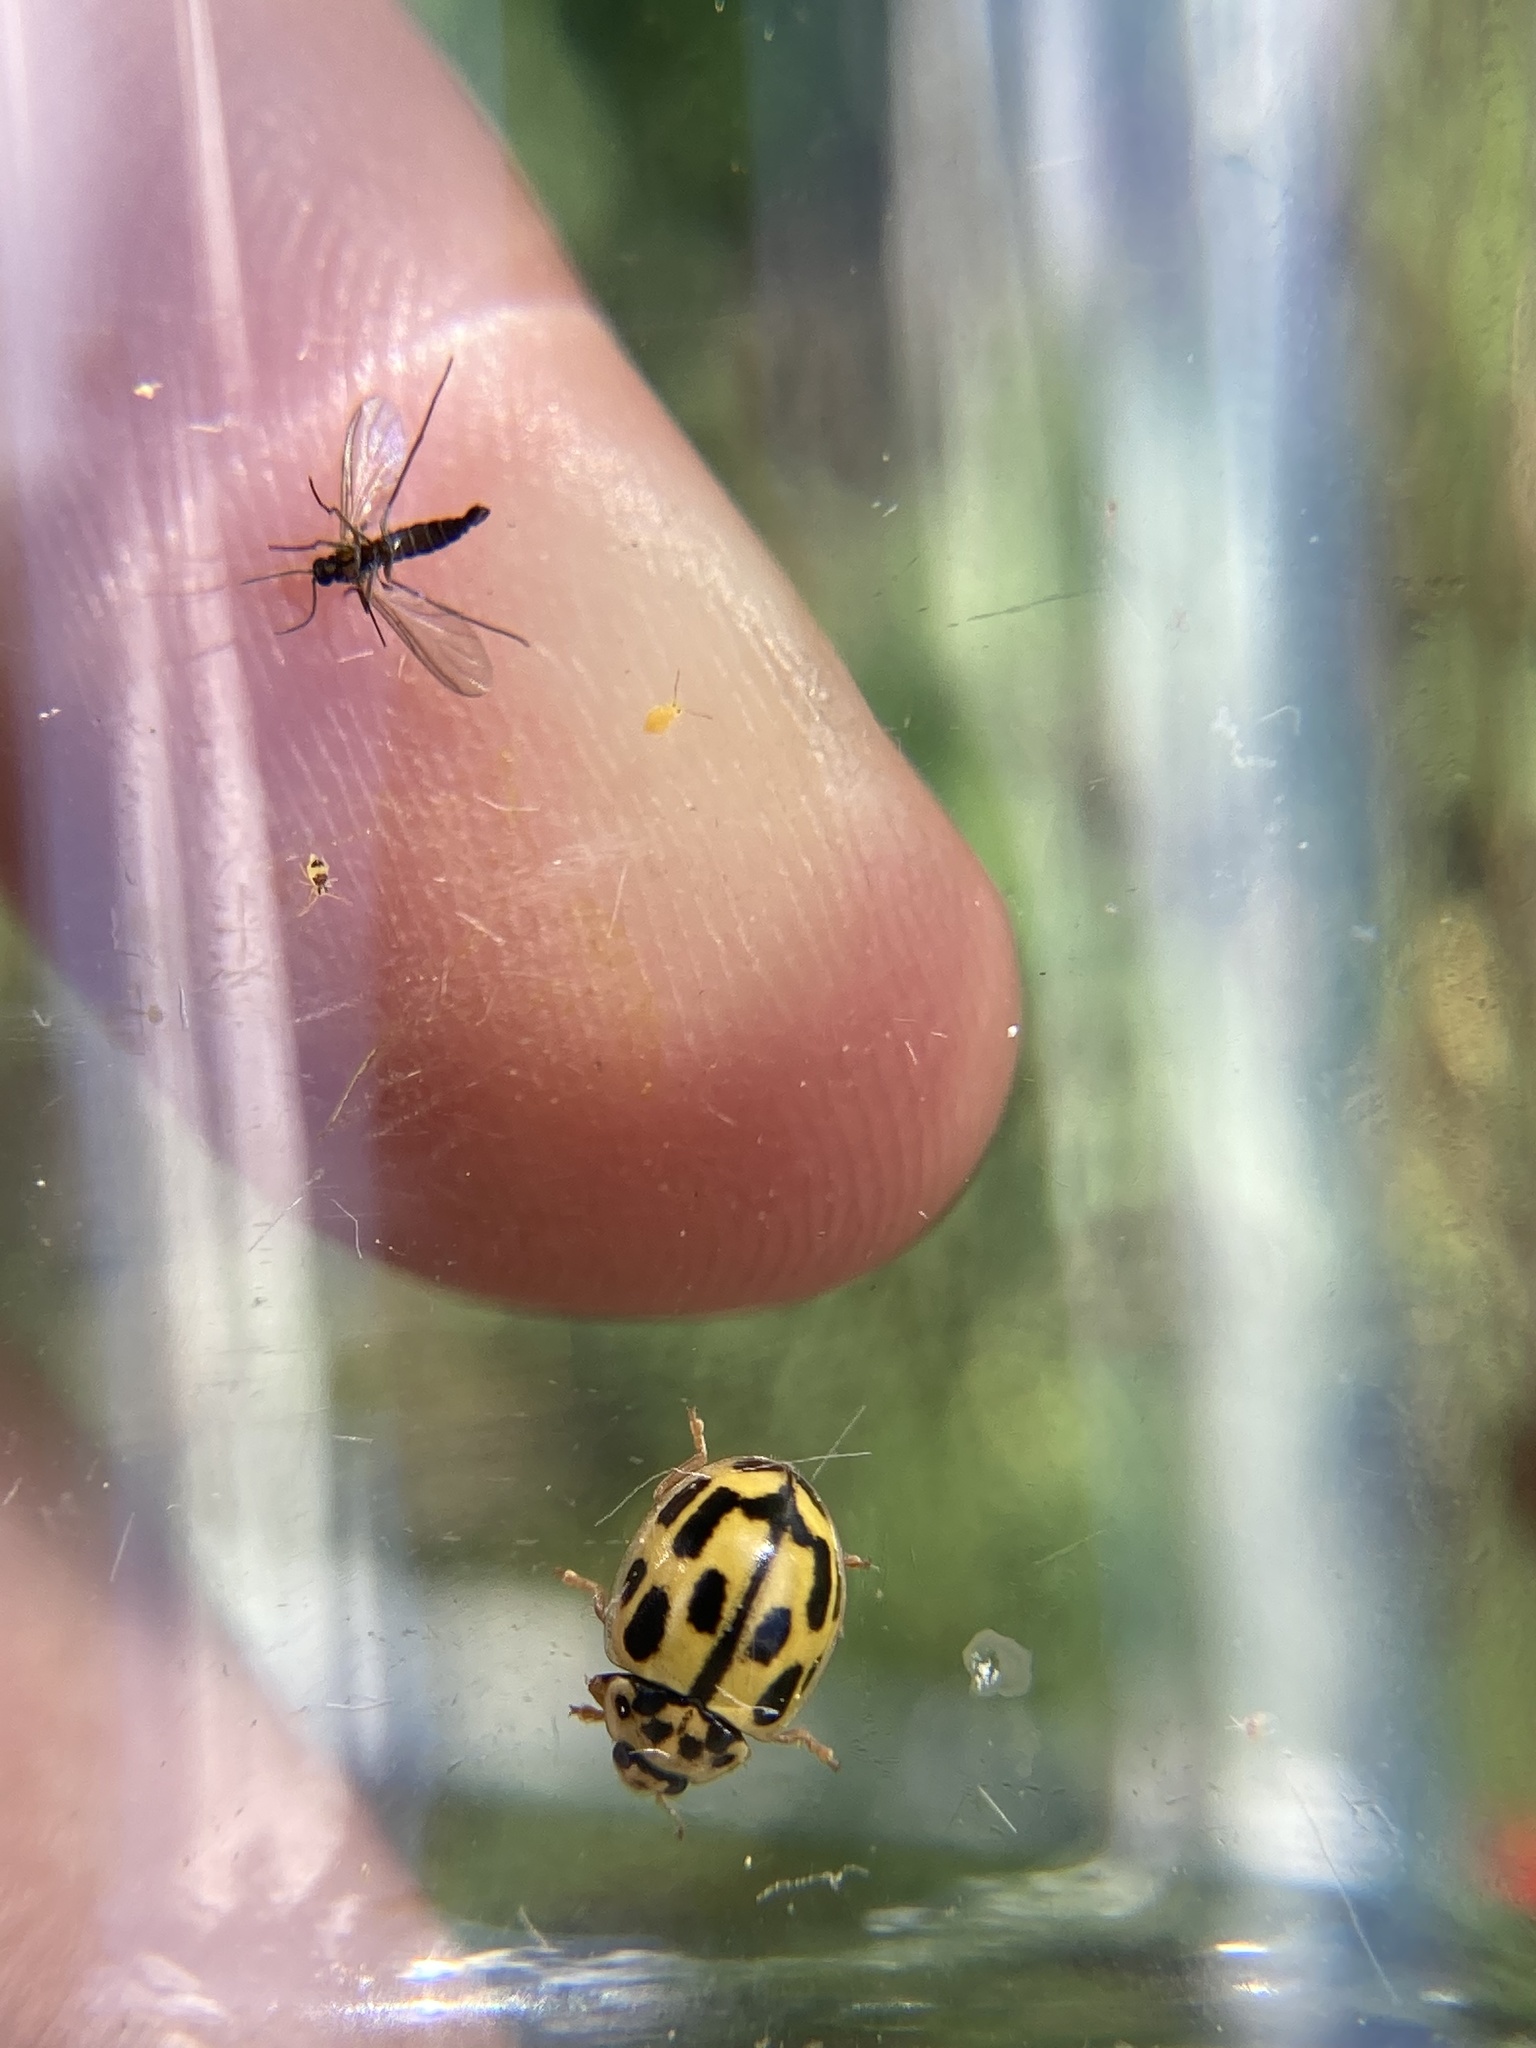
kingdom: Animalia
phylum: Arthropoda
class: Insecta
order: Coleoptera
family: Coccinellidae
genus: Propylaea
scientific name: Propylaea quatuordecimpunctata
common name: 14-spotted ladybird beetle
